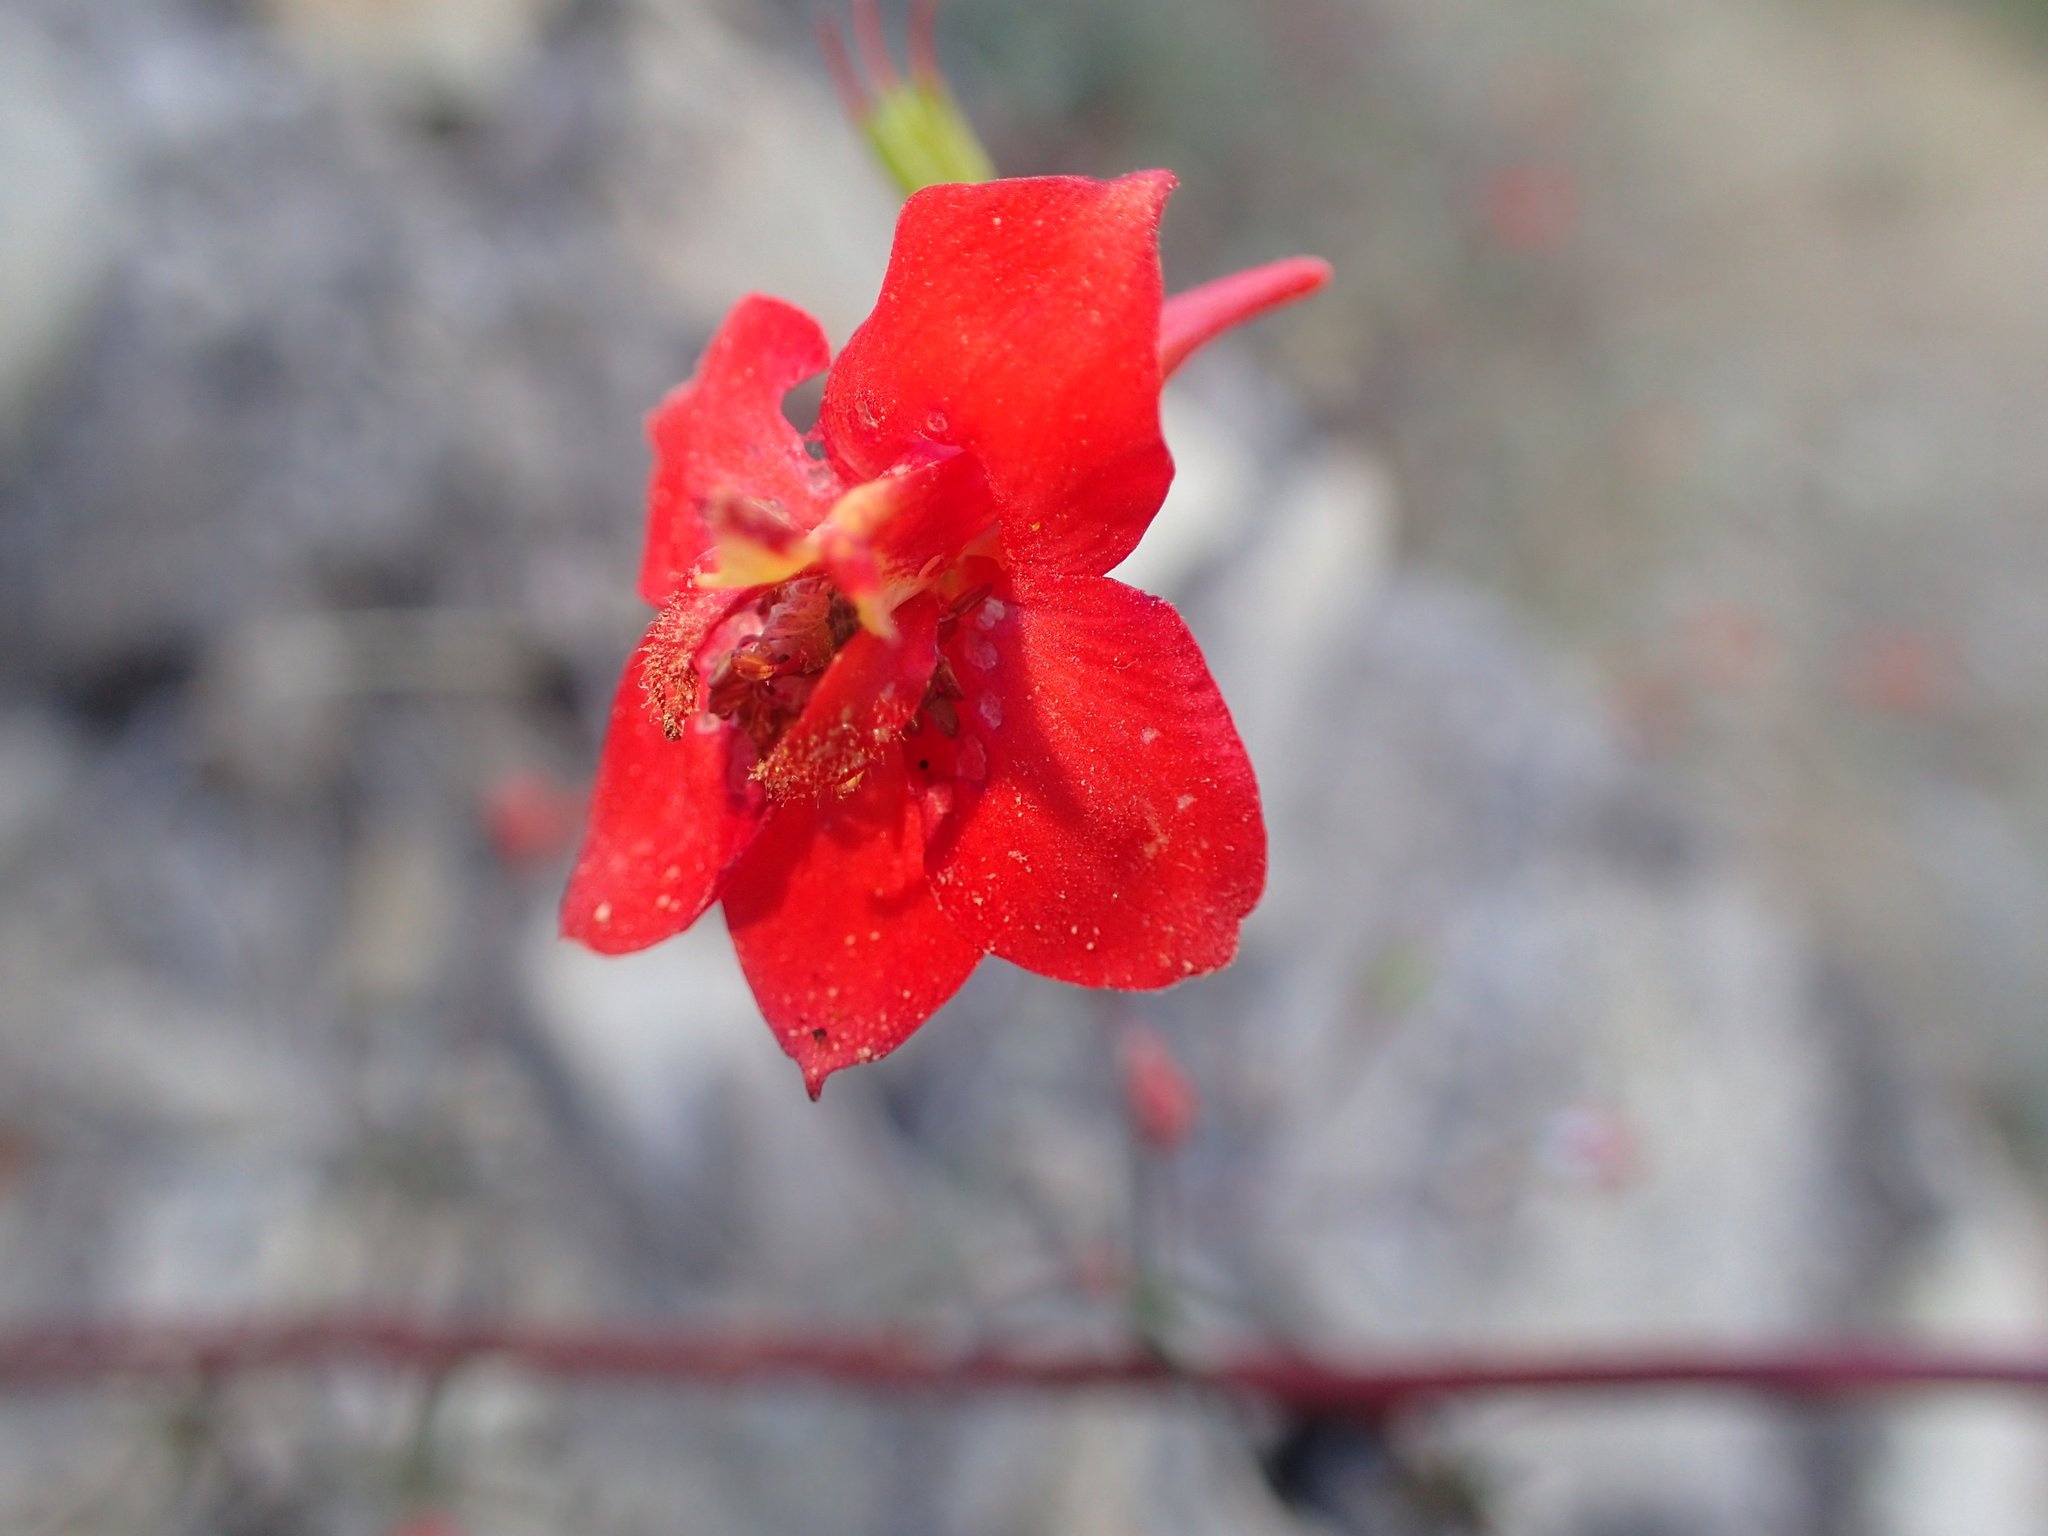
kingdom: Plantae
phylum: Tracheophyta
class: Magnoliopsida
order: Ranunculales
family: Ranunculaceae
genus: Delphinium
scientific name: Delphinium cardinale
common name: Scarlet larkspur
